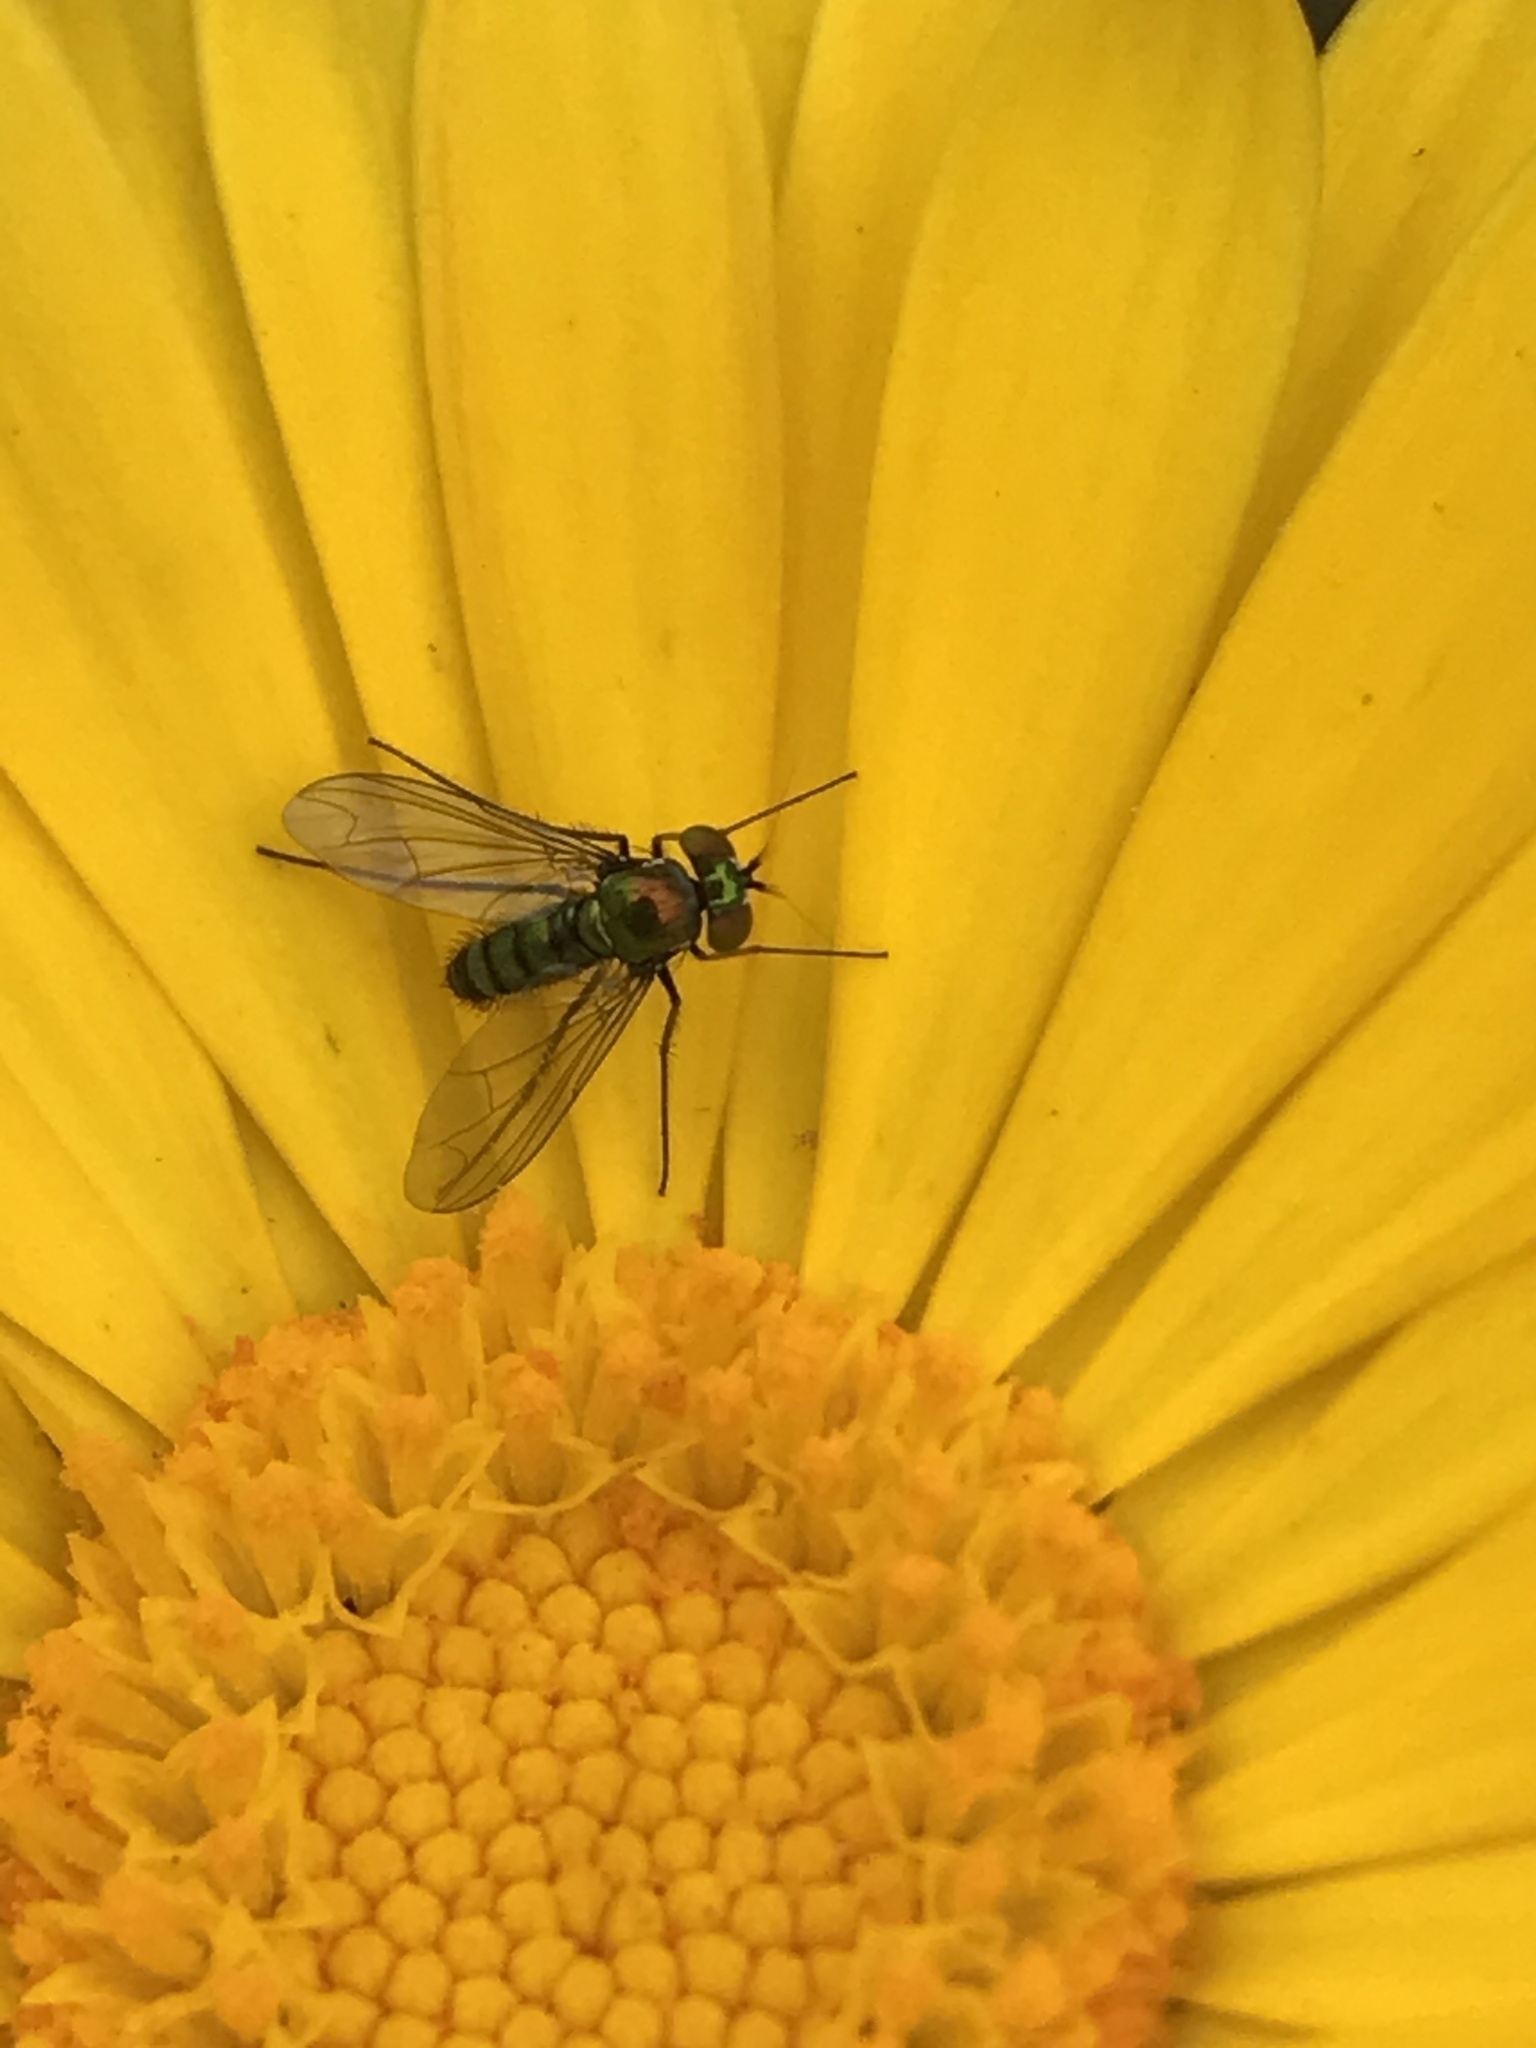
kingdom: Animalia
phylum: Arthropoda
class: Insecta
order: Diptera
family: Dolichopodidae
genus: Condylostylus
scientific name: Condylostylus longicornis
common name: Long-legged fly
